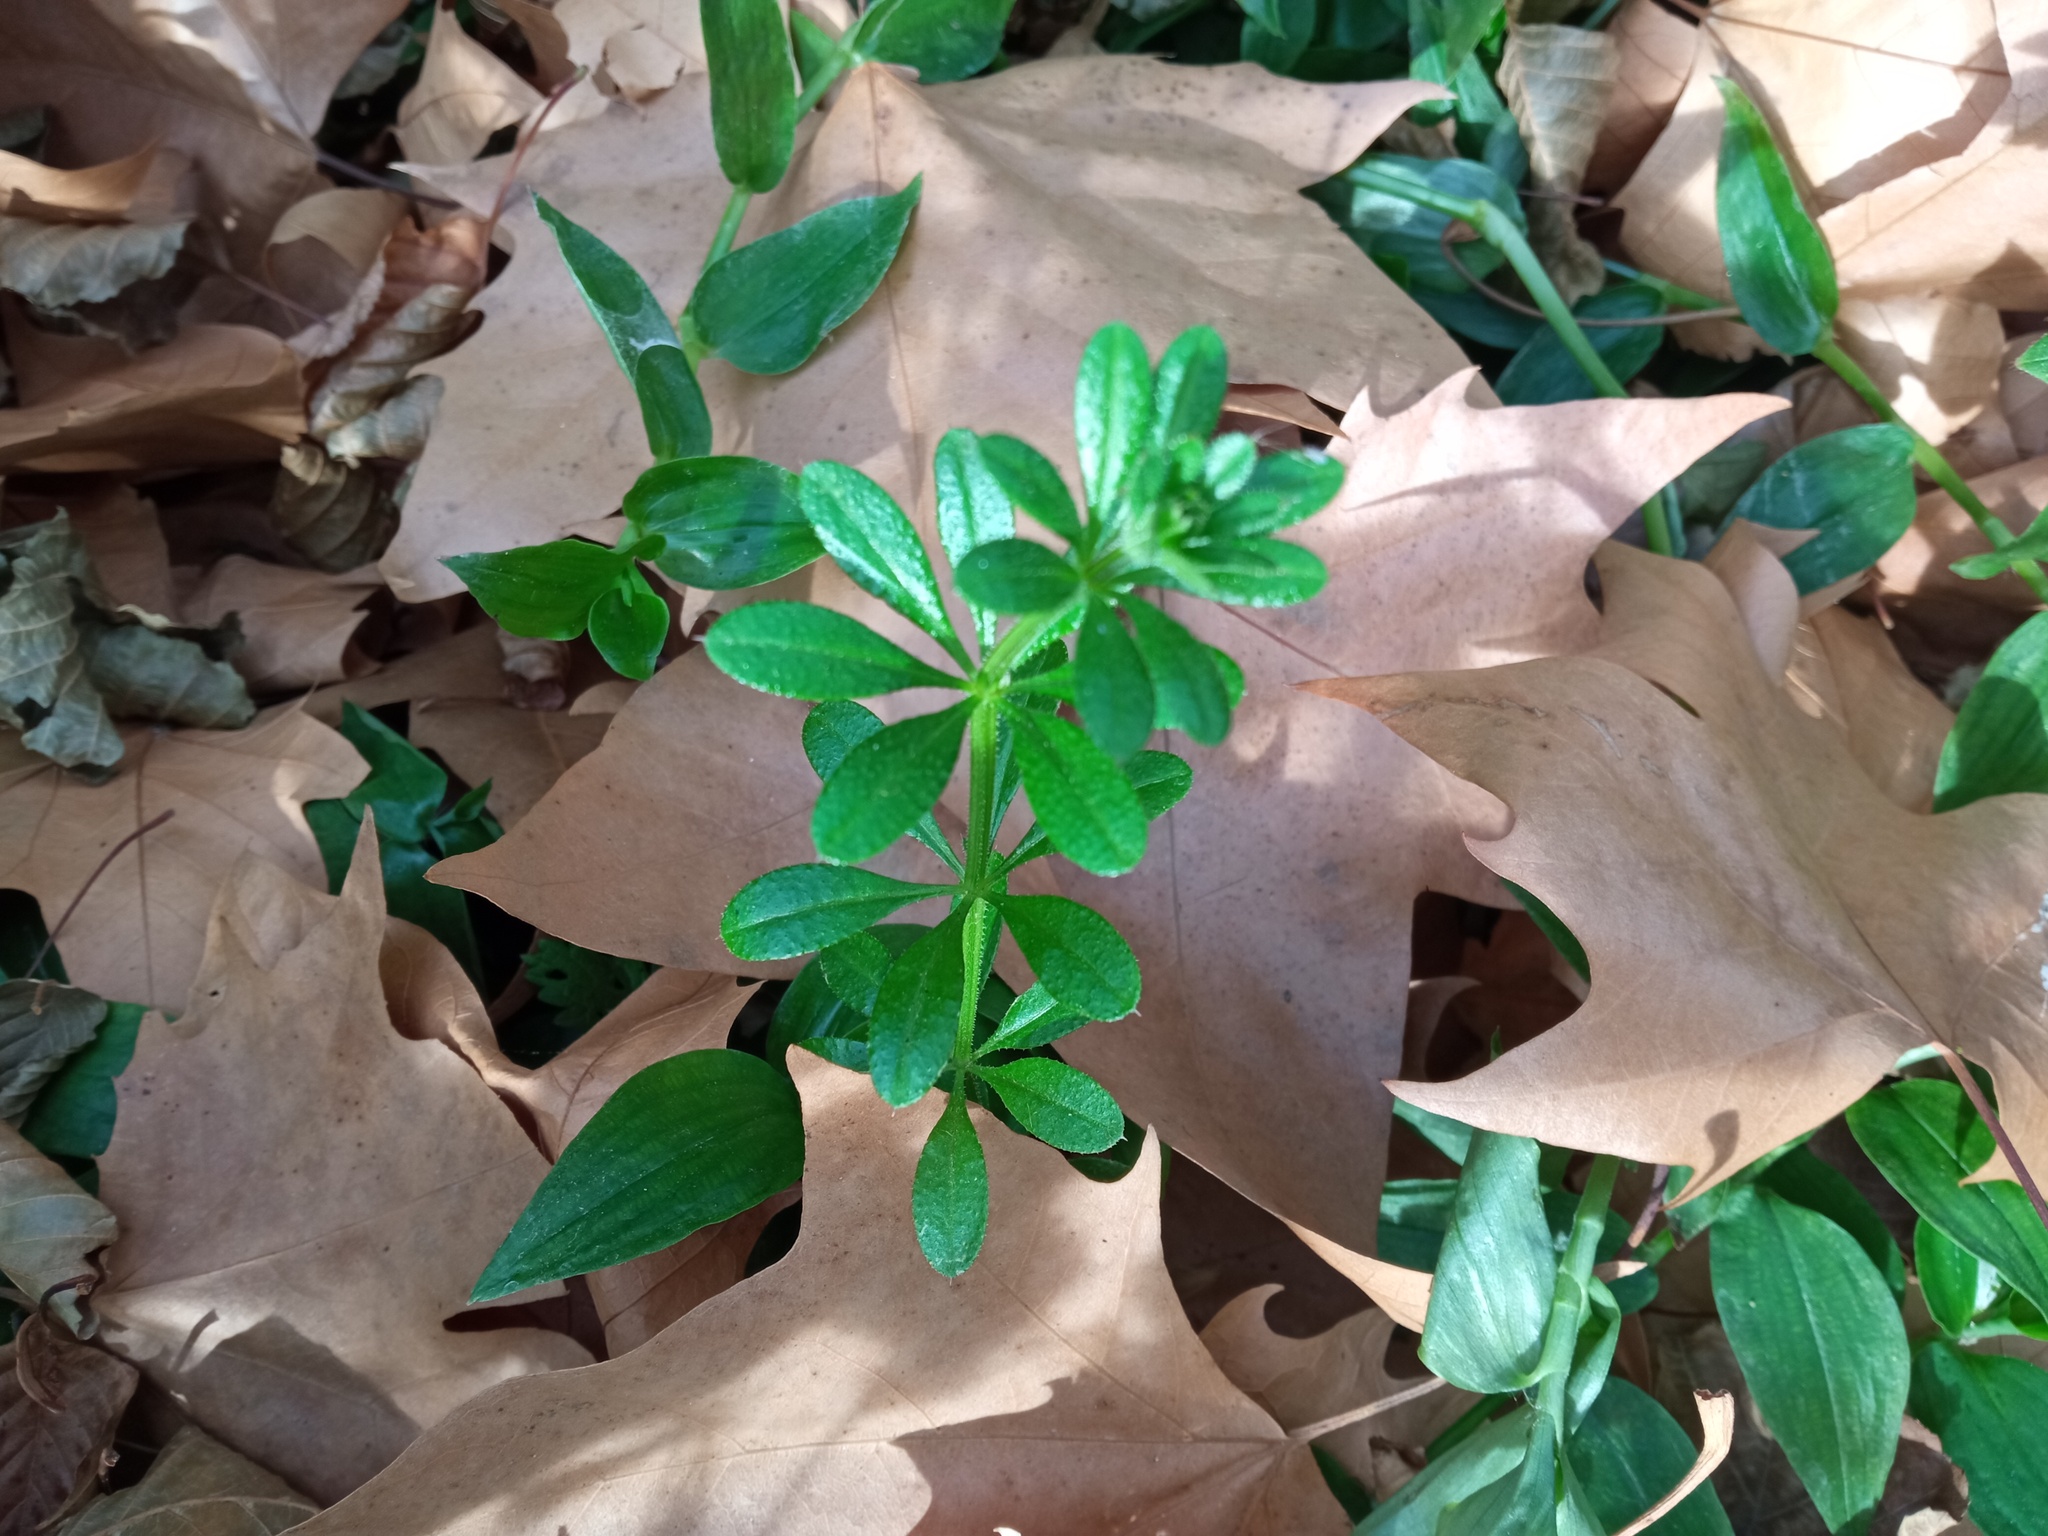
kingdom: Plantae
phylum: Tracheophyta
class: Magnoliopsida
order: Gentianales
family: Rubiaceae
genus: Galium
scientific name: Galium aparine
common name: Cleavers
